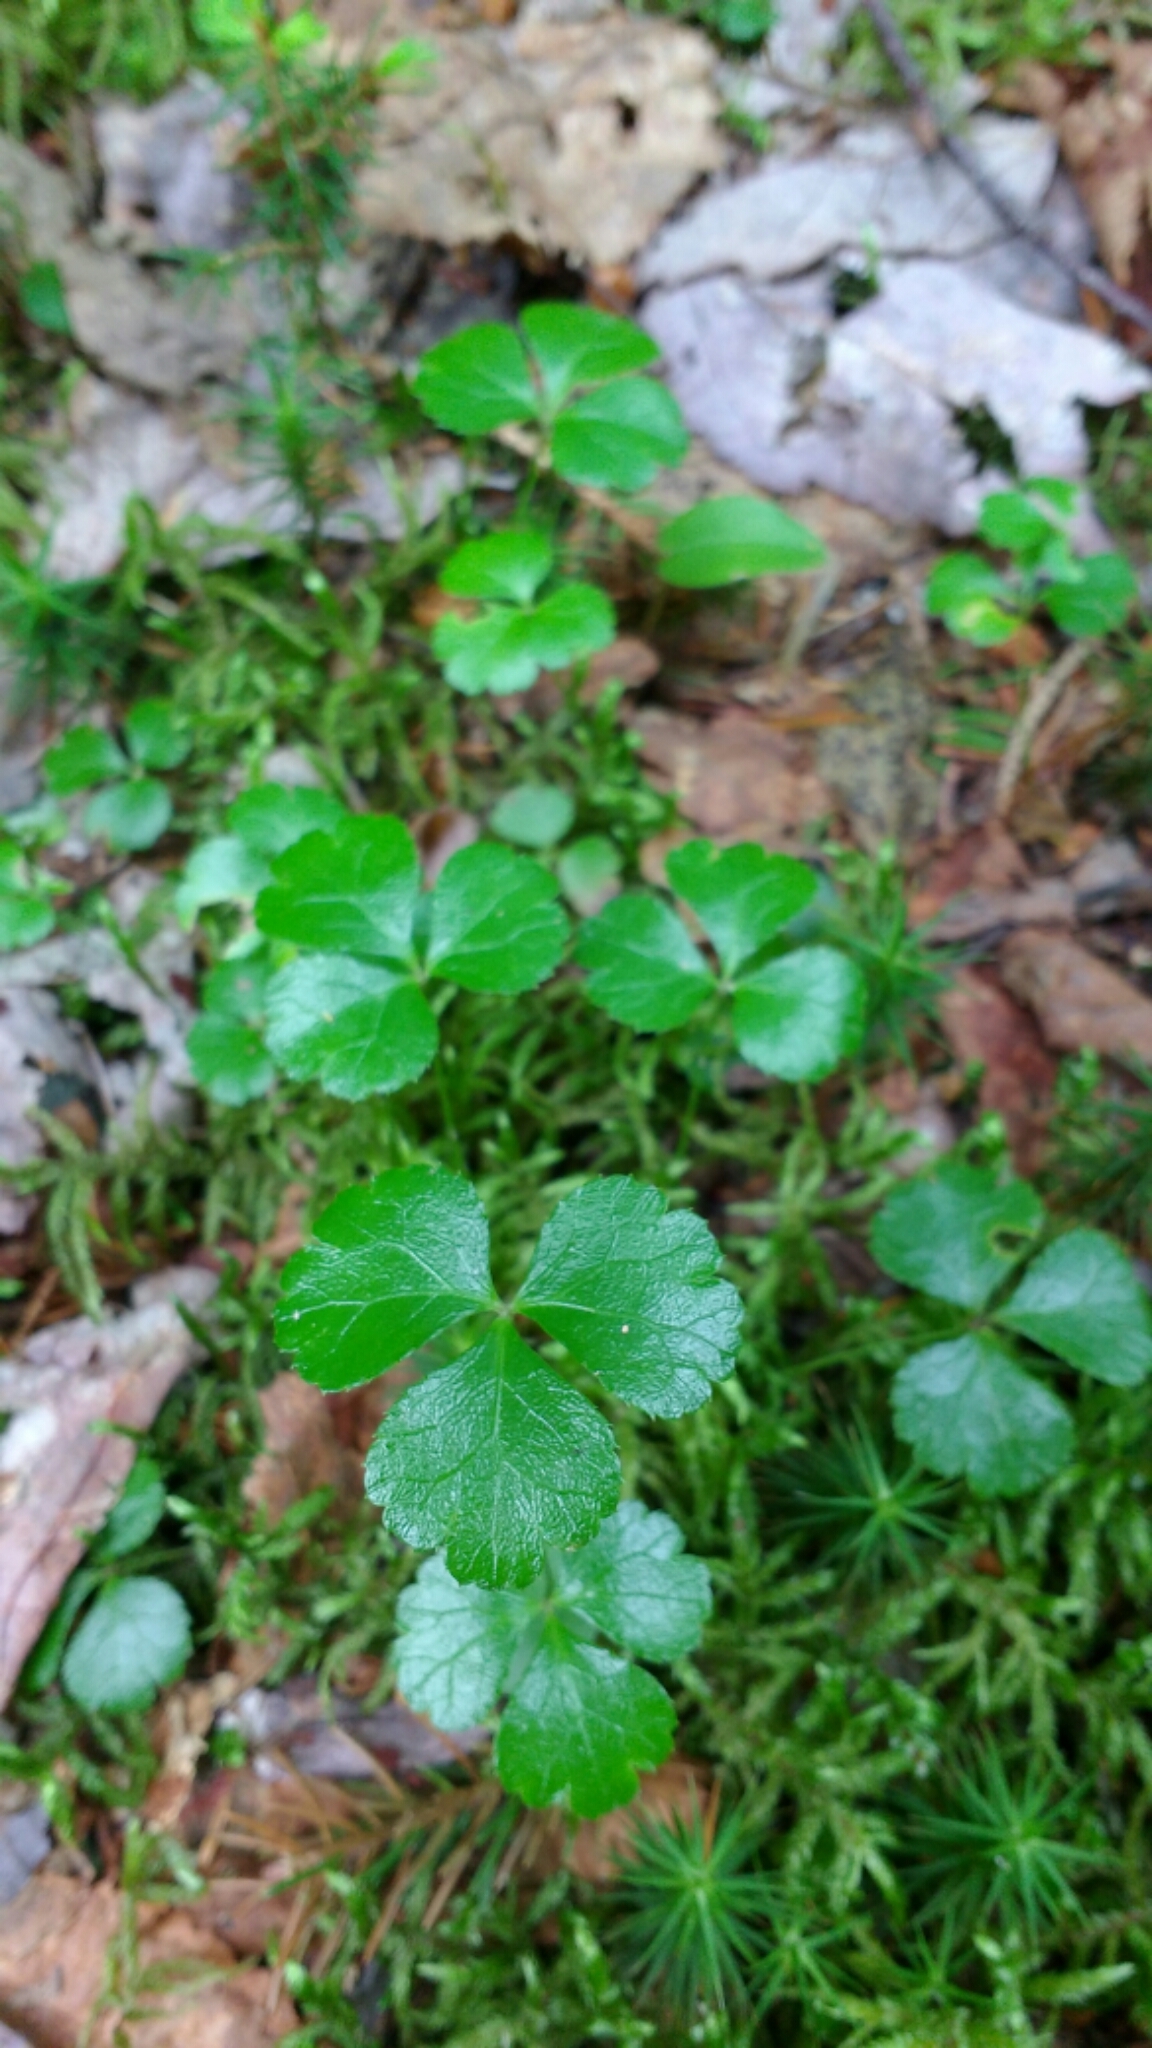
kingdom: Plantae
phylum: Tracheophyta
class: Magnoliopsida
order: Ranunculales
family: Ranunculaceae
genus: Coptis
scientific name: Coptis trifolia
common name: Canker-root
